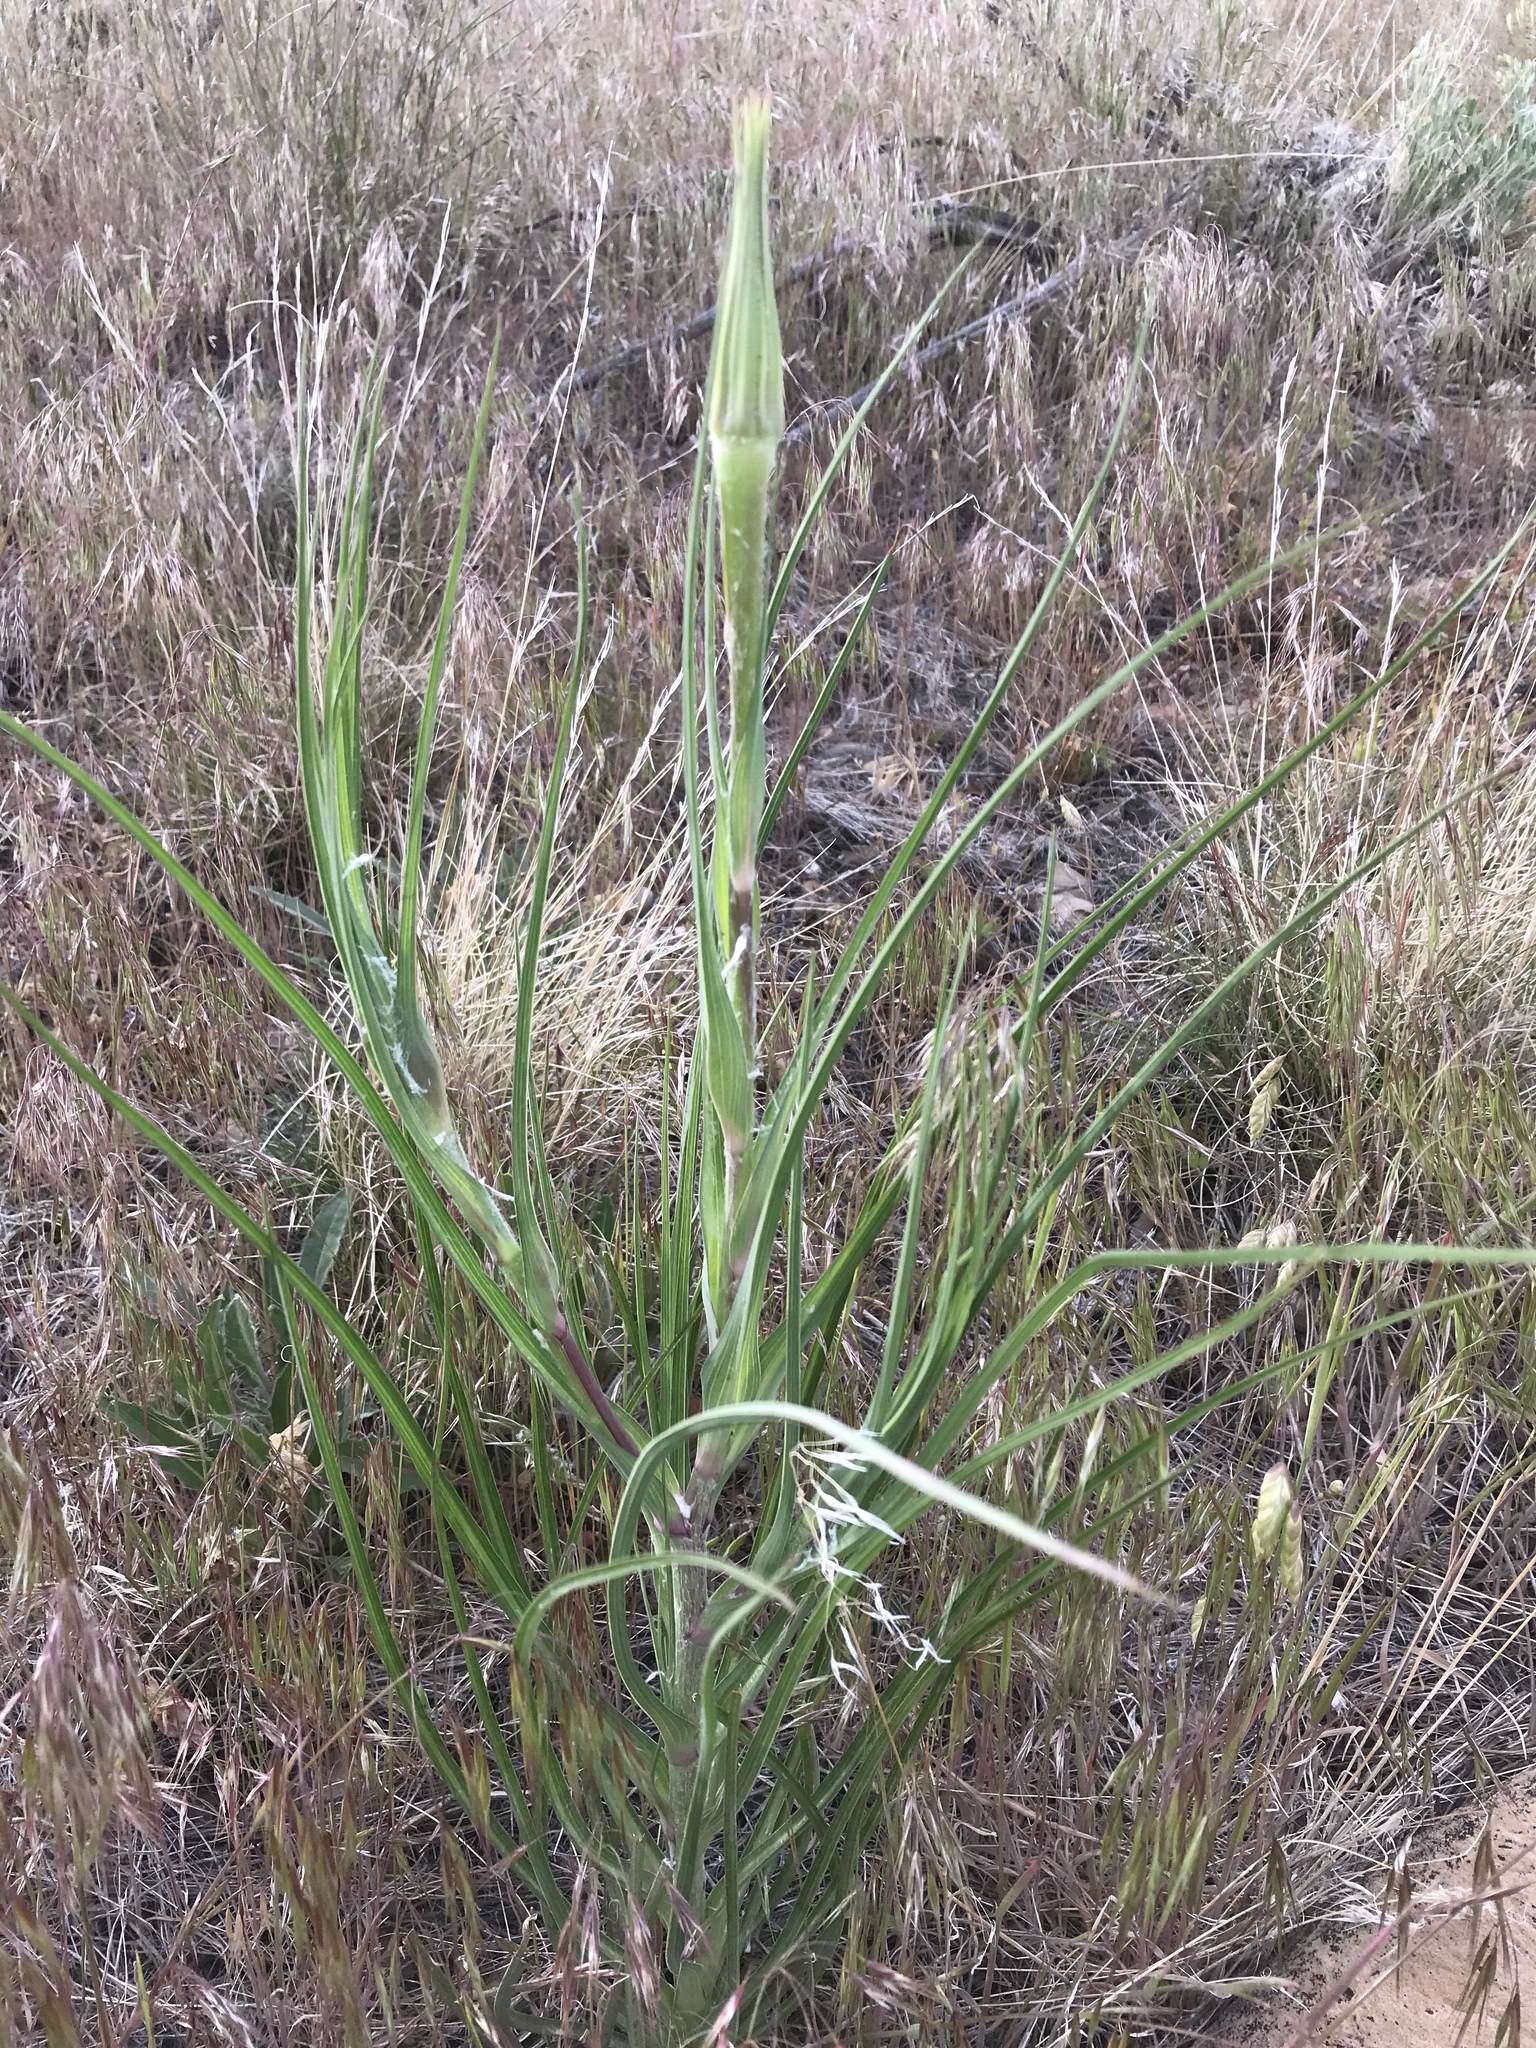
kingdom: Plantae
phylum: Tracheophyta
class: Magnoliopsida
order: Asterales
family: Asteraceae
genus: Tragopogon
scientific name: Tragopogon dubius
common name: Yellow salsify
